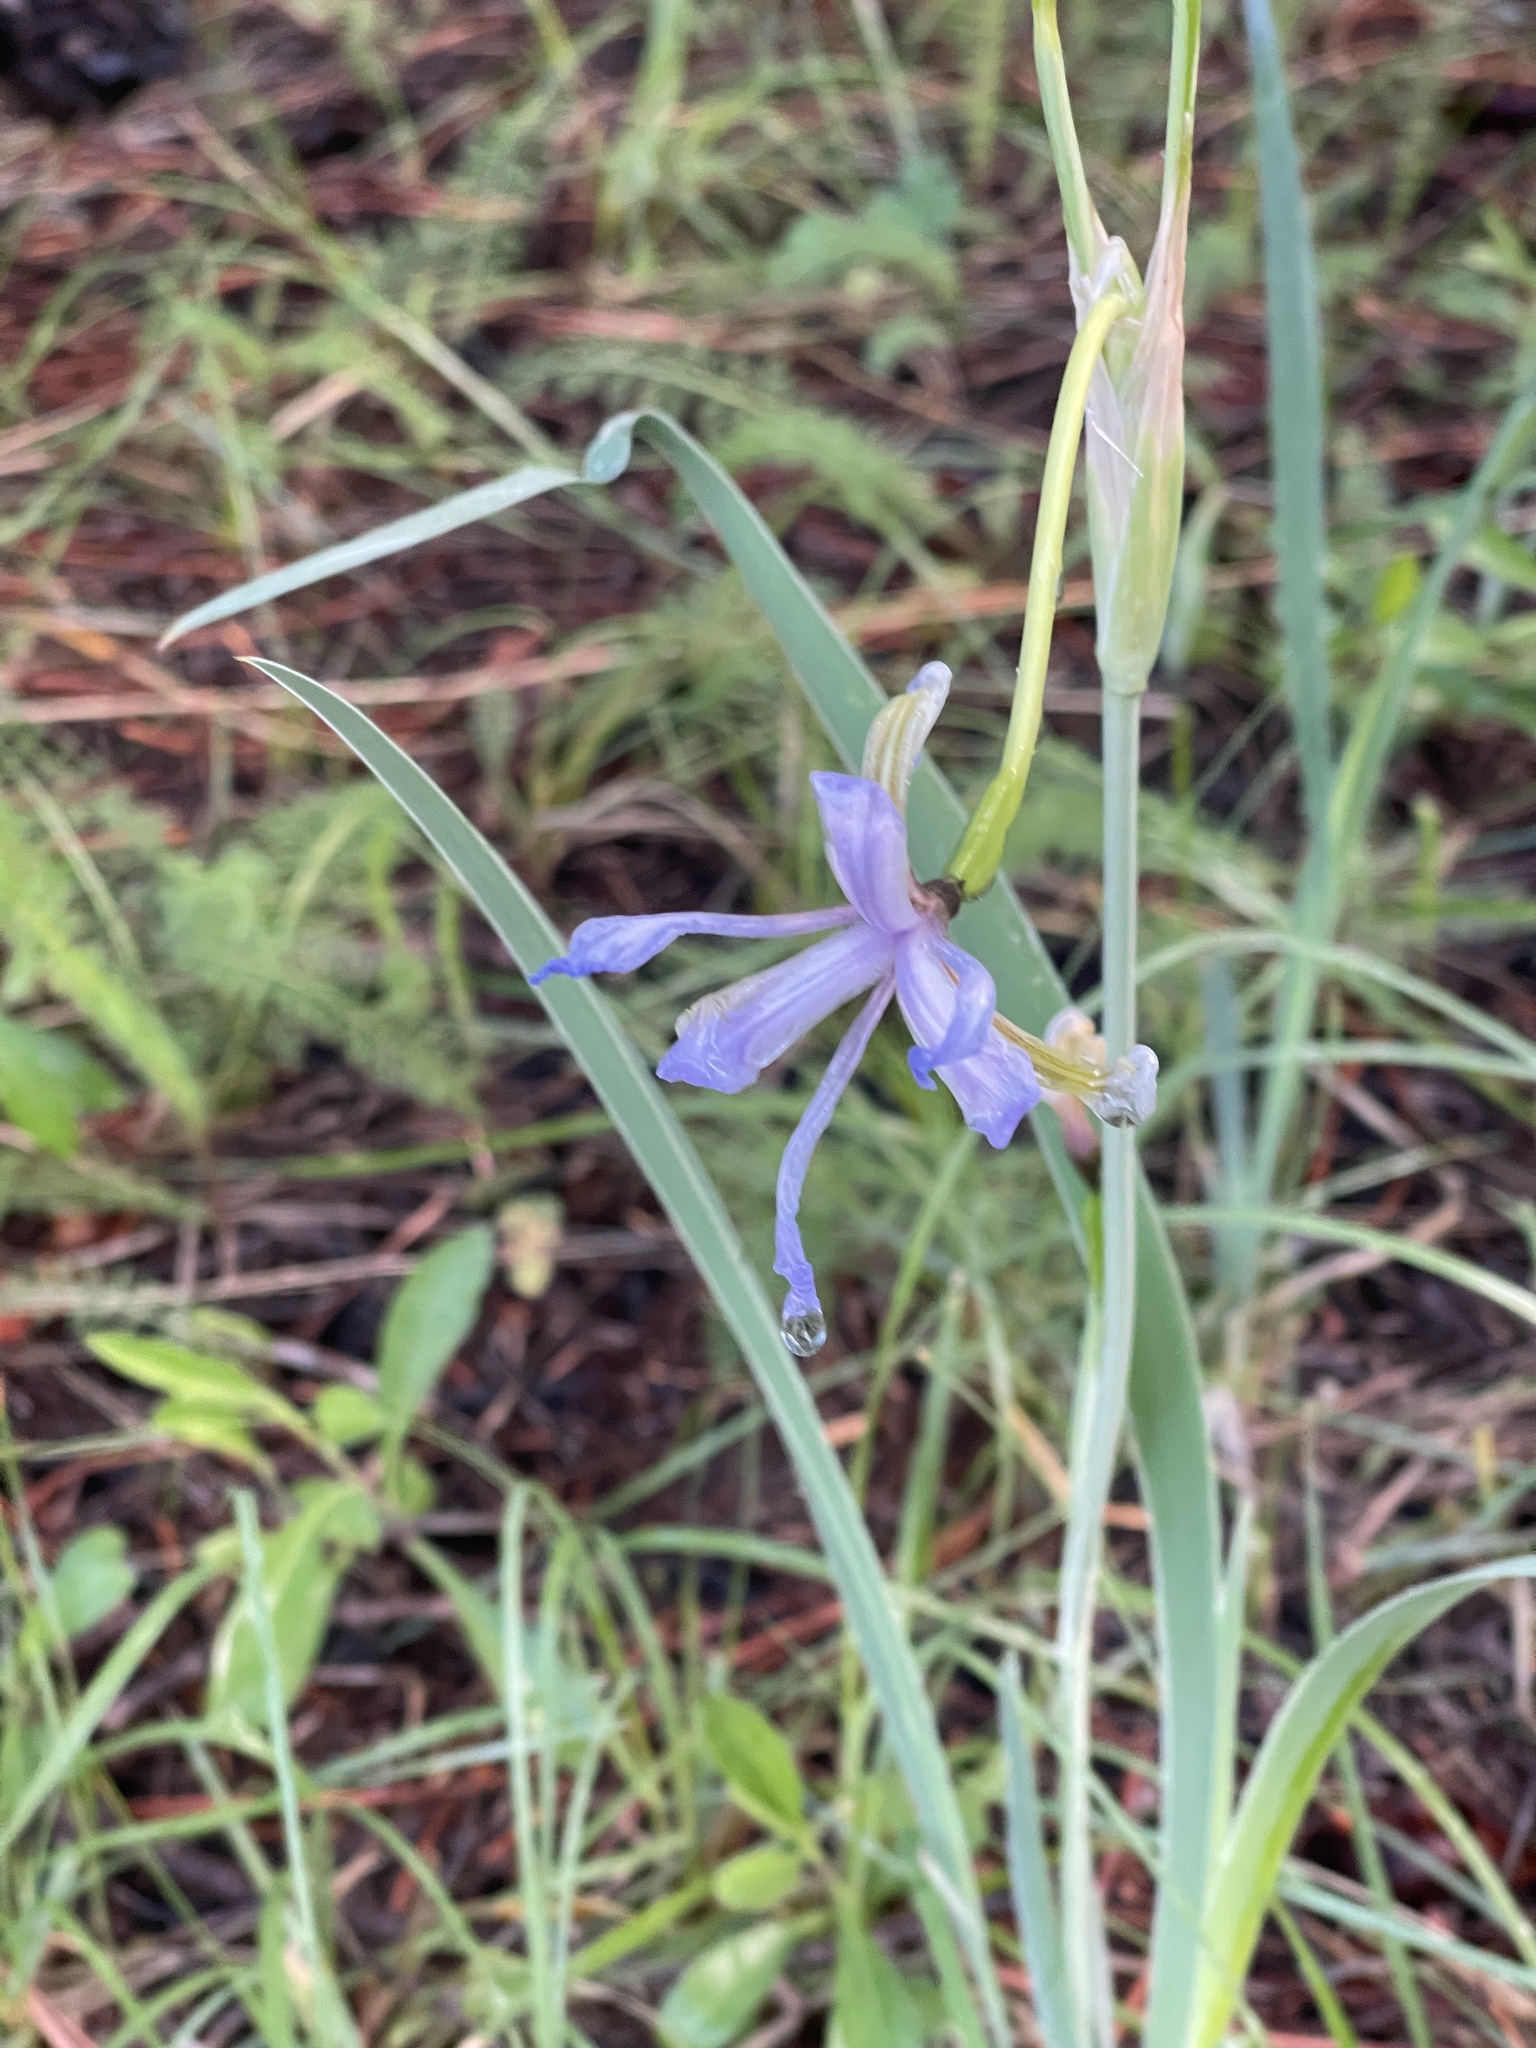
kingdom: Plantae
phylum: Tracheophyta
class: Liliopsida
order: Asparagales
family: Iridaceae
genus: Iris
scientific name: Iris missouriensis
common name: Rocky mountain iris
